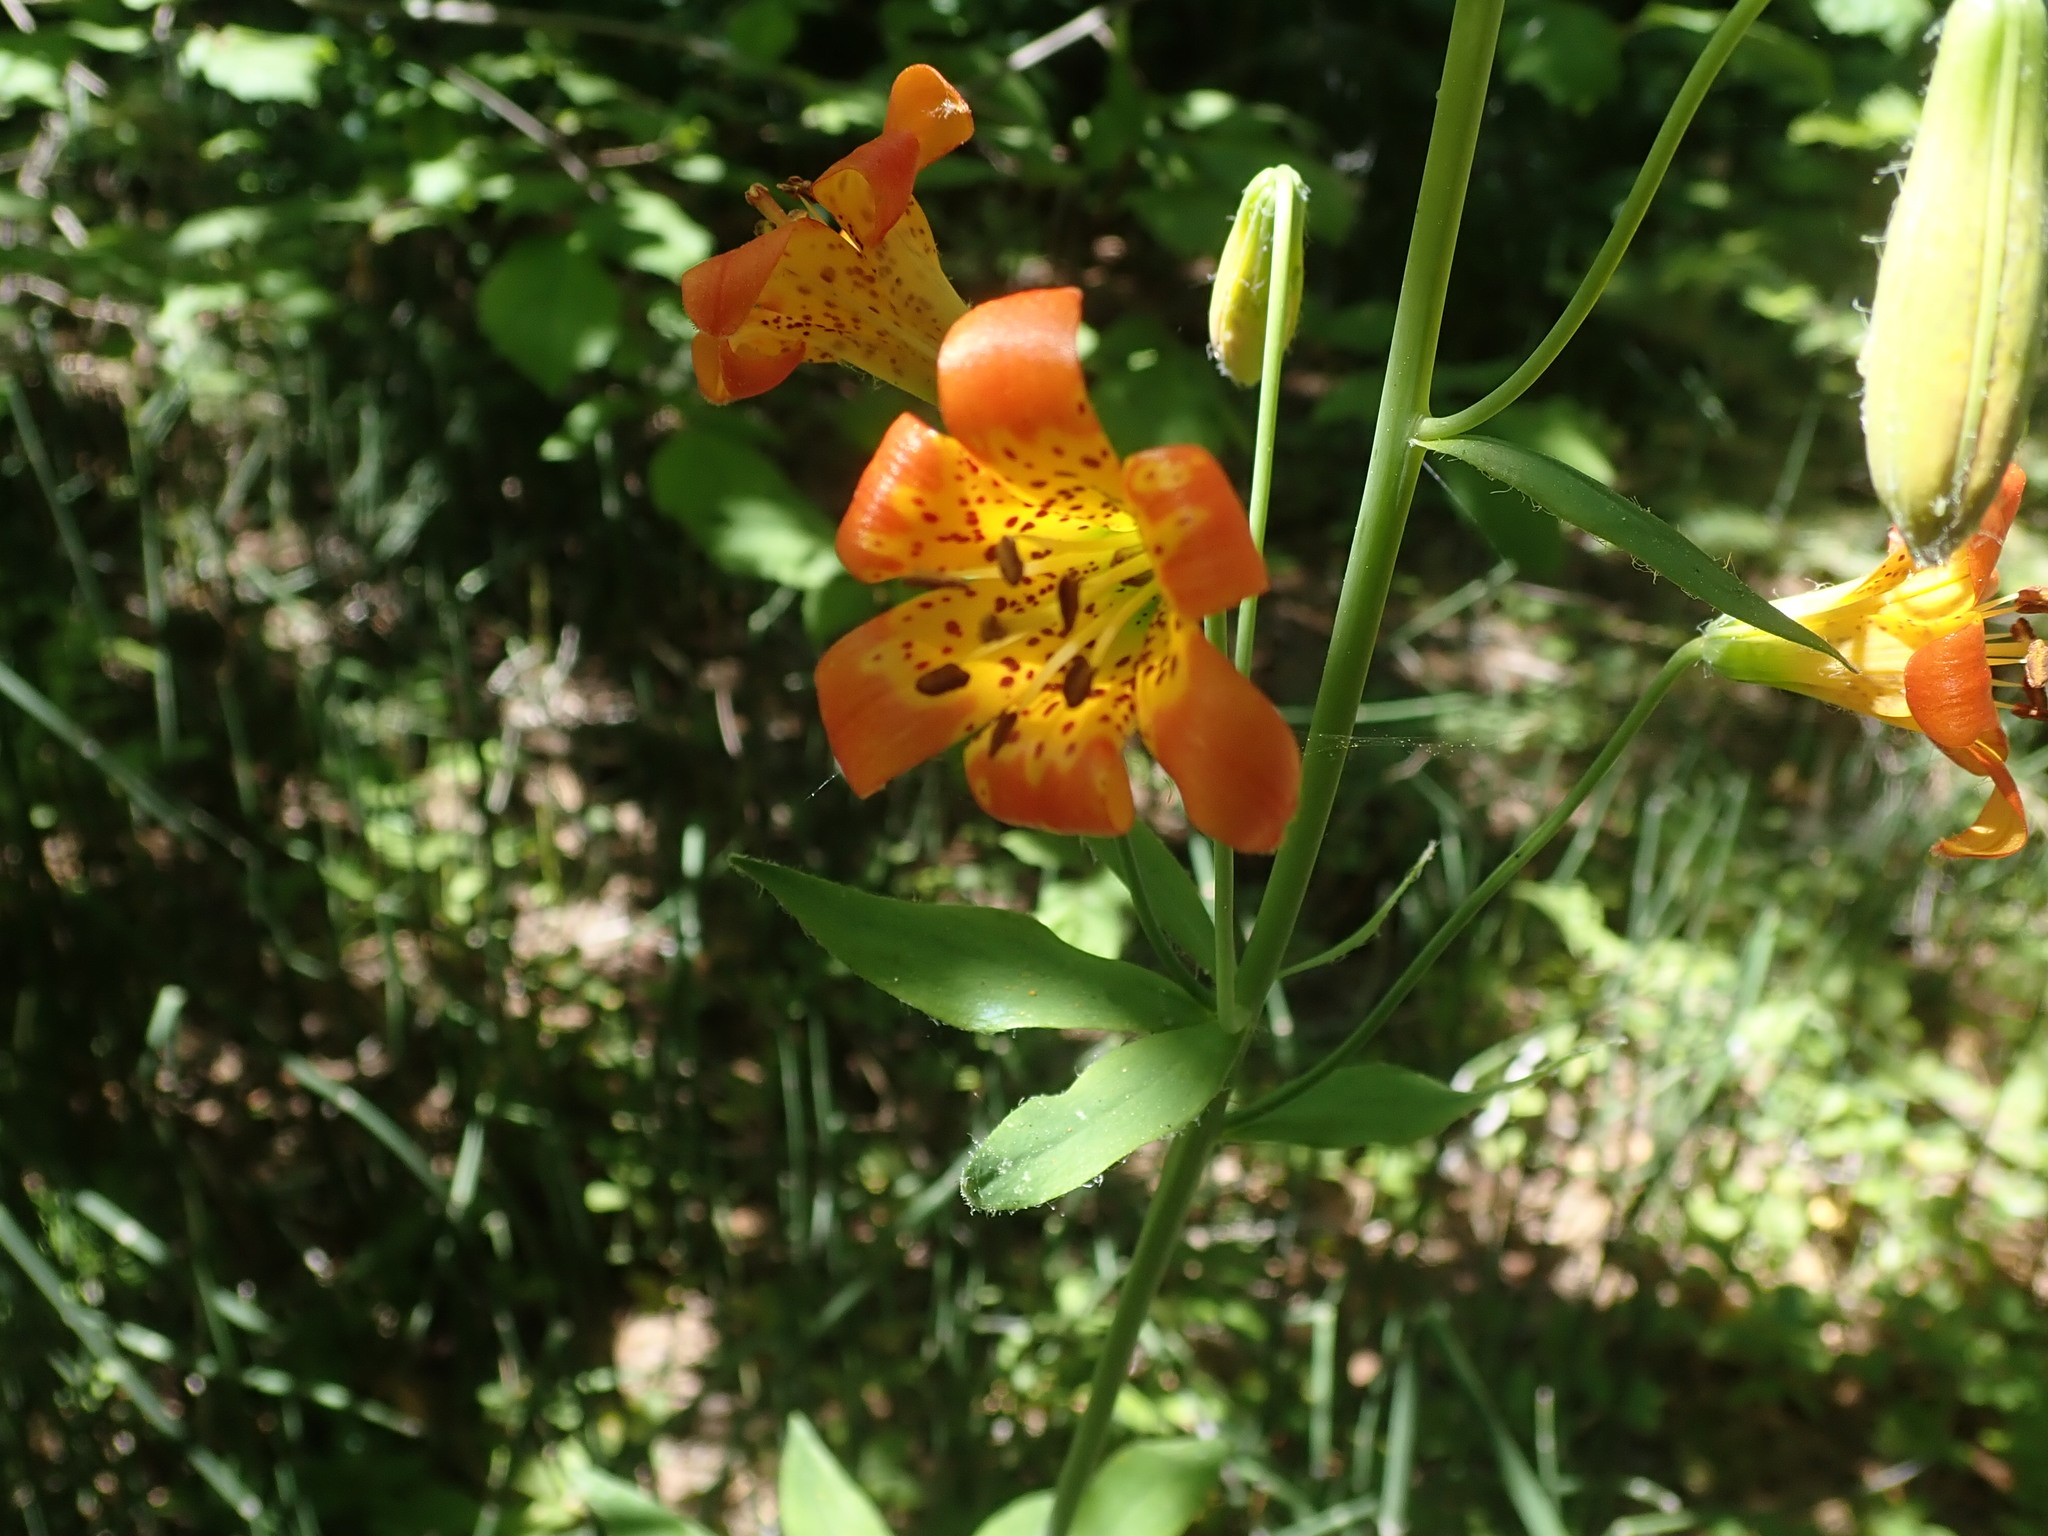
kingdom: Plantae
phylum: Tracheophyta
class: Liliopsida
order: Liliales
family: Liliaceae
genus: Lilium
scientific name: Lilium parvum
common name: Alpine lily
